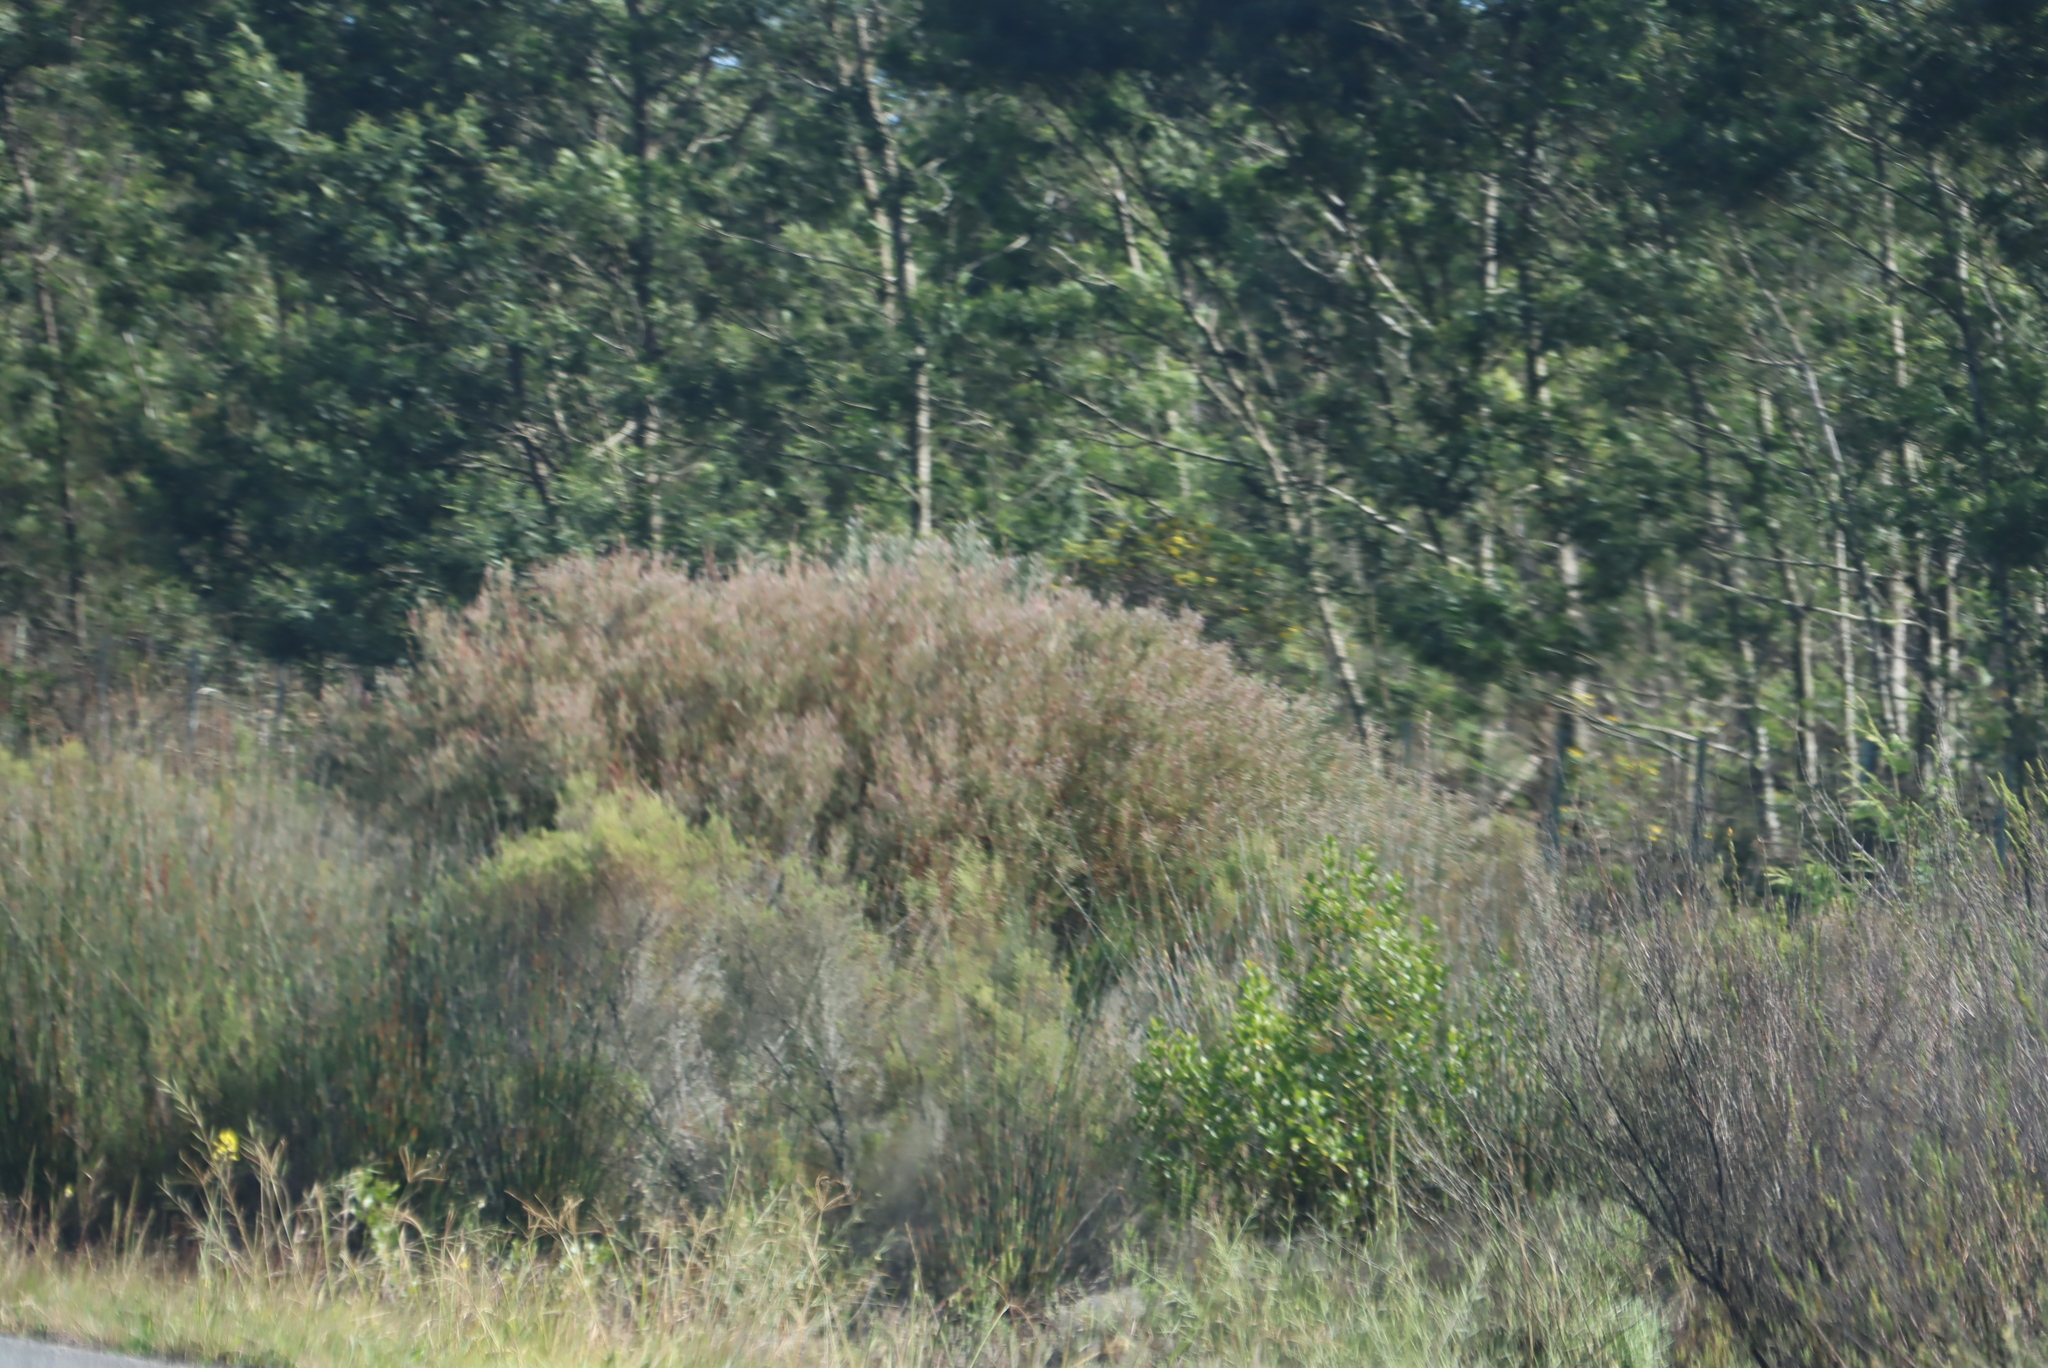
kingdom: Plantae
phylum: Tracheophyta
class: Magnoliopsida
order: Proteales
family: Proteaceae
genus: Leucadendron
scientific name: Leucadendron galpinii
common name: Hairless conebush
